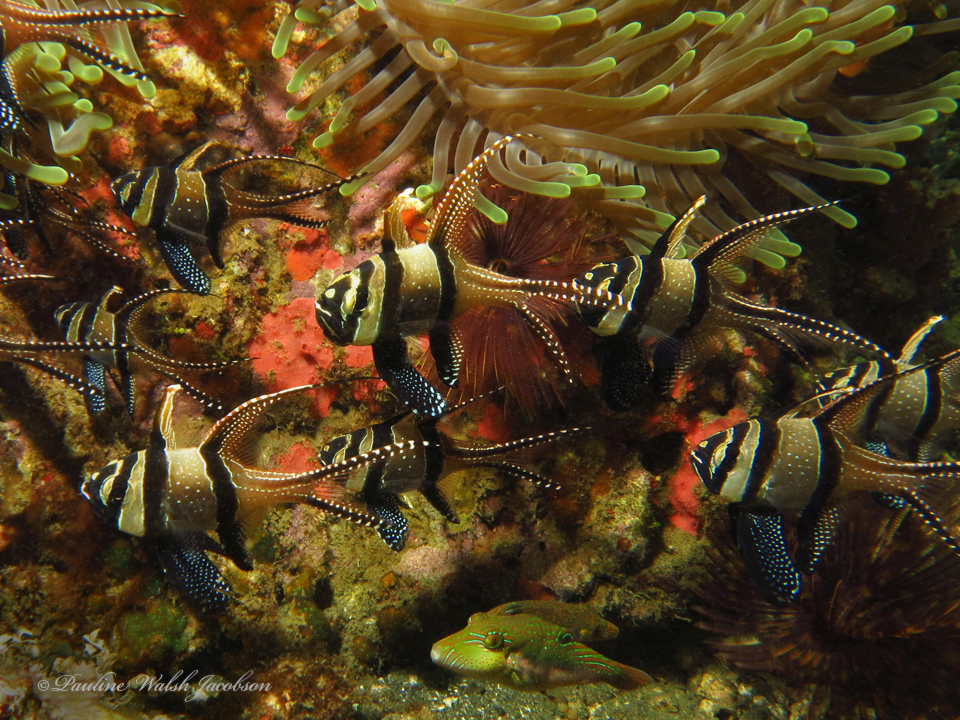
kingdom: Animalia
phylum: Chordata
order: Perciformes
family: Apogonidae
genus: Pterapogon
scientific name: Pterapogon kauderni
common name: Banggai cardinalfish
